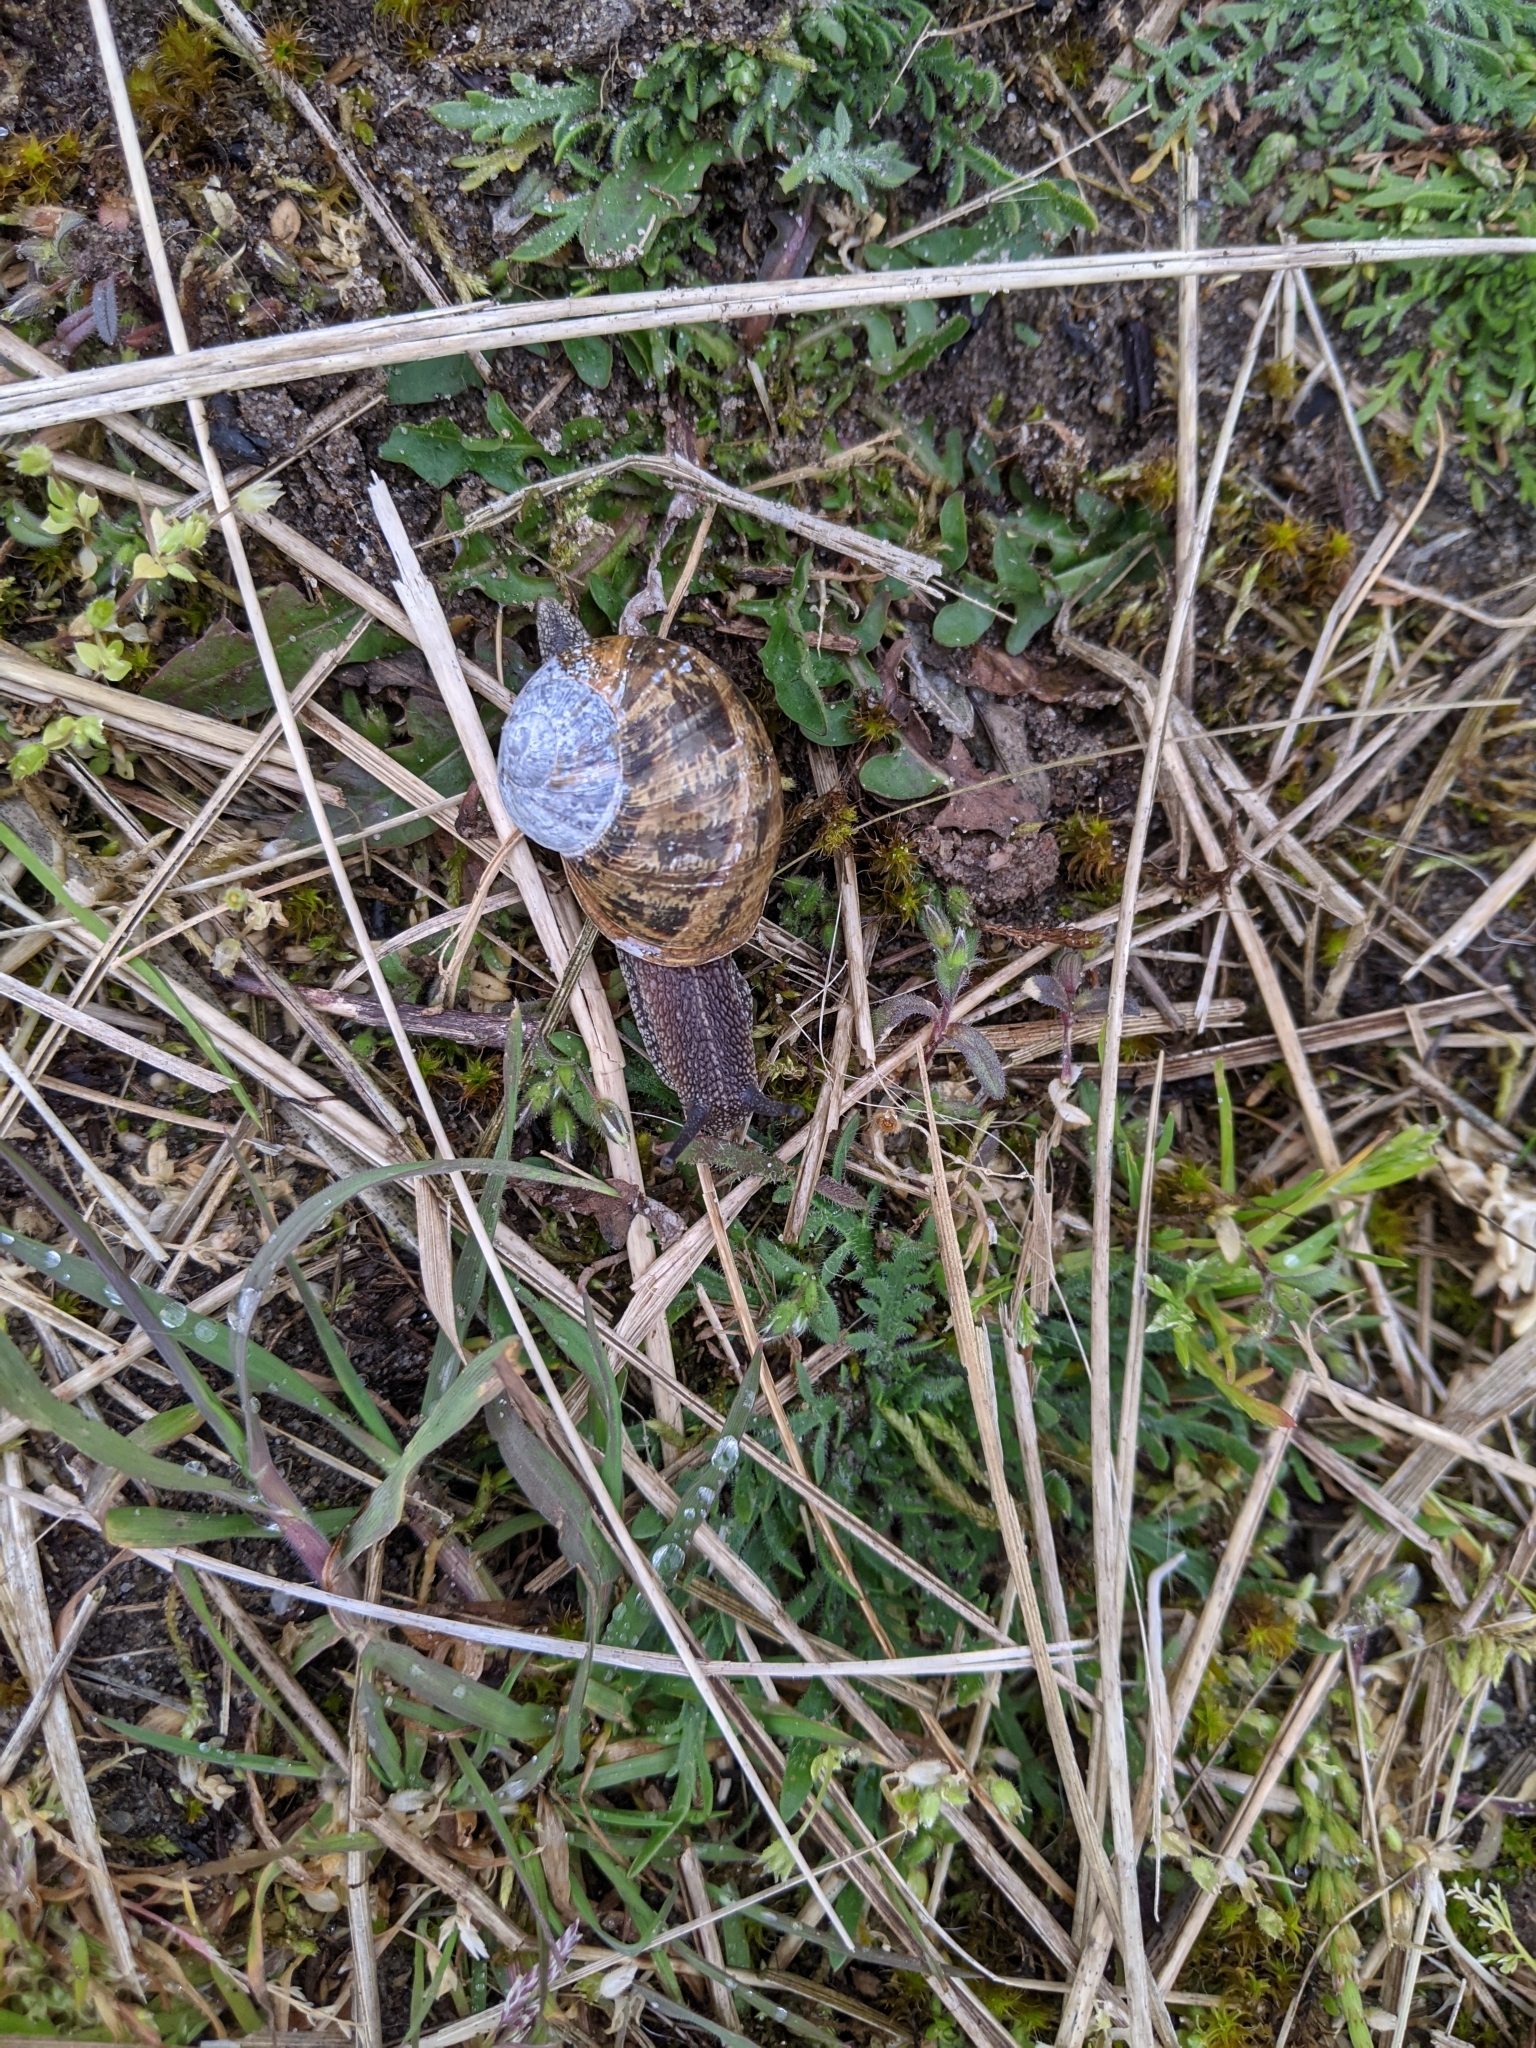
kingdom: Animalia
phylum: Mollusca
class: Gastropoda
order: Stylommatophora
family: Helicidae
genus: Cornu
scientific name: Cornu aspersum
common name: Brown garden snail
